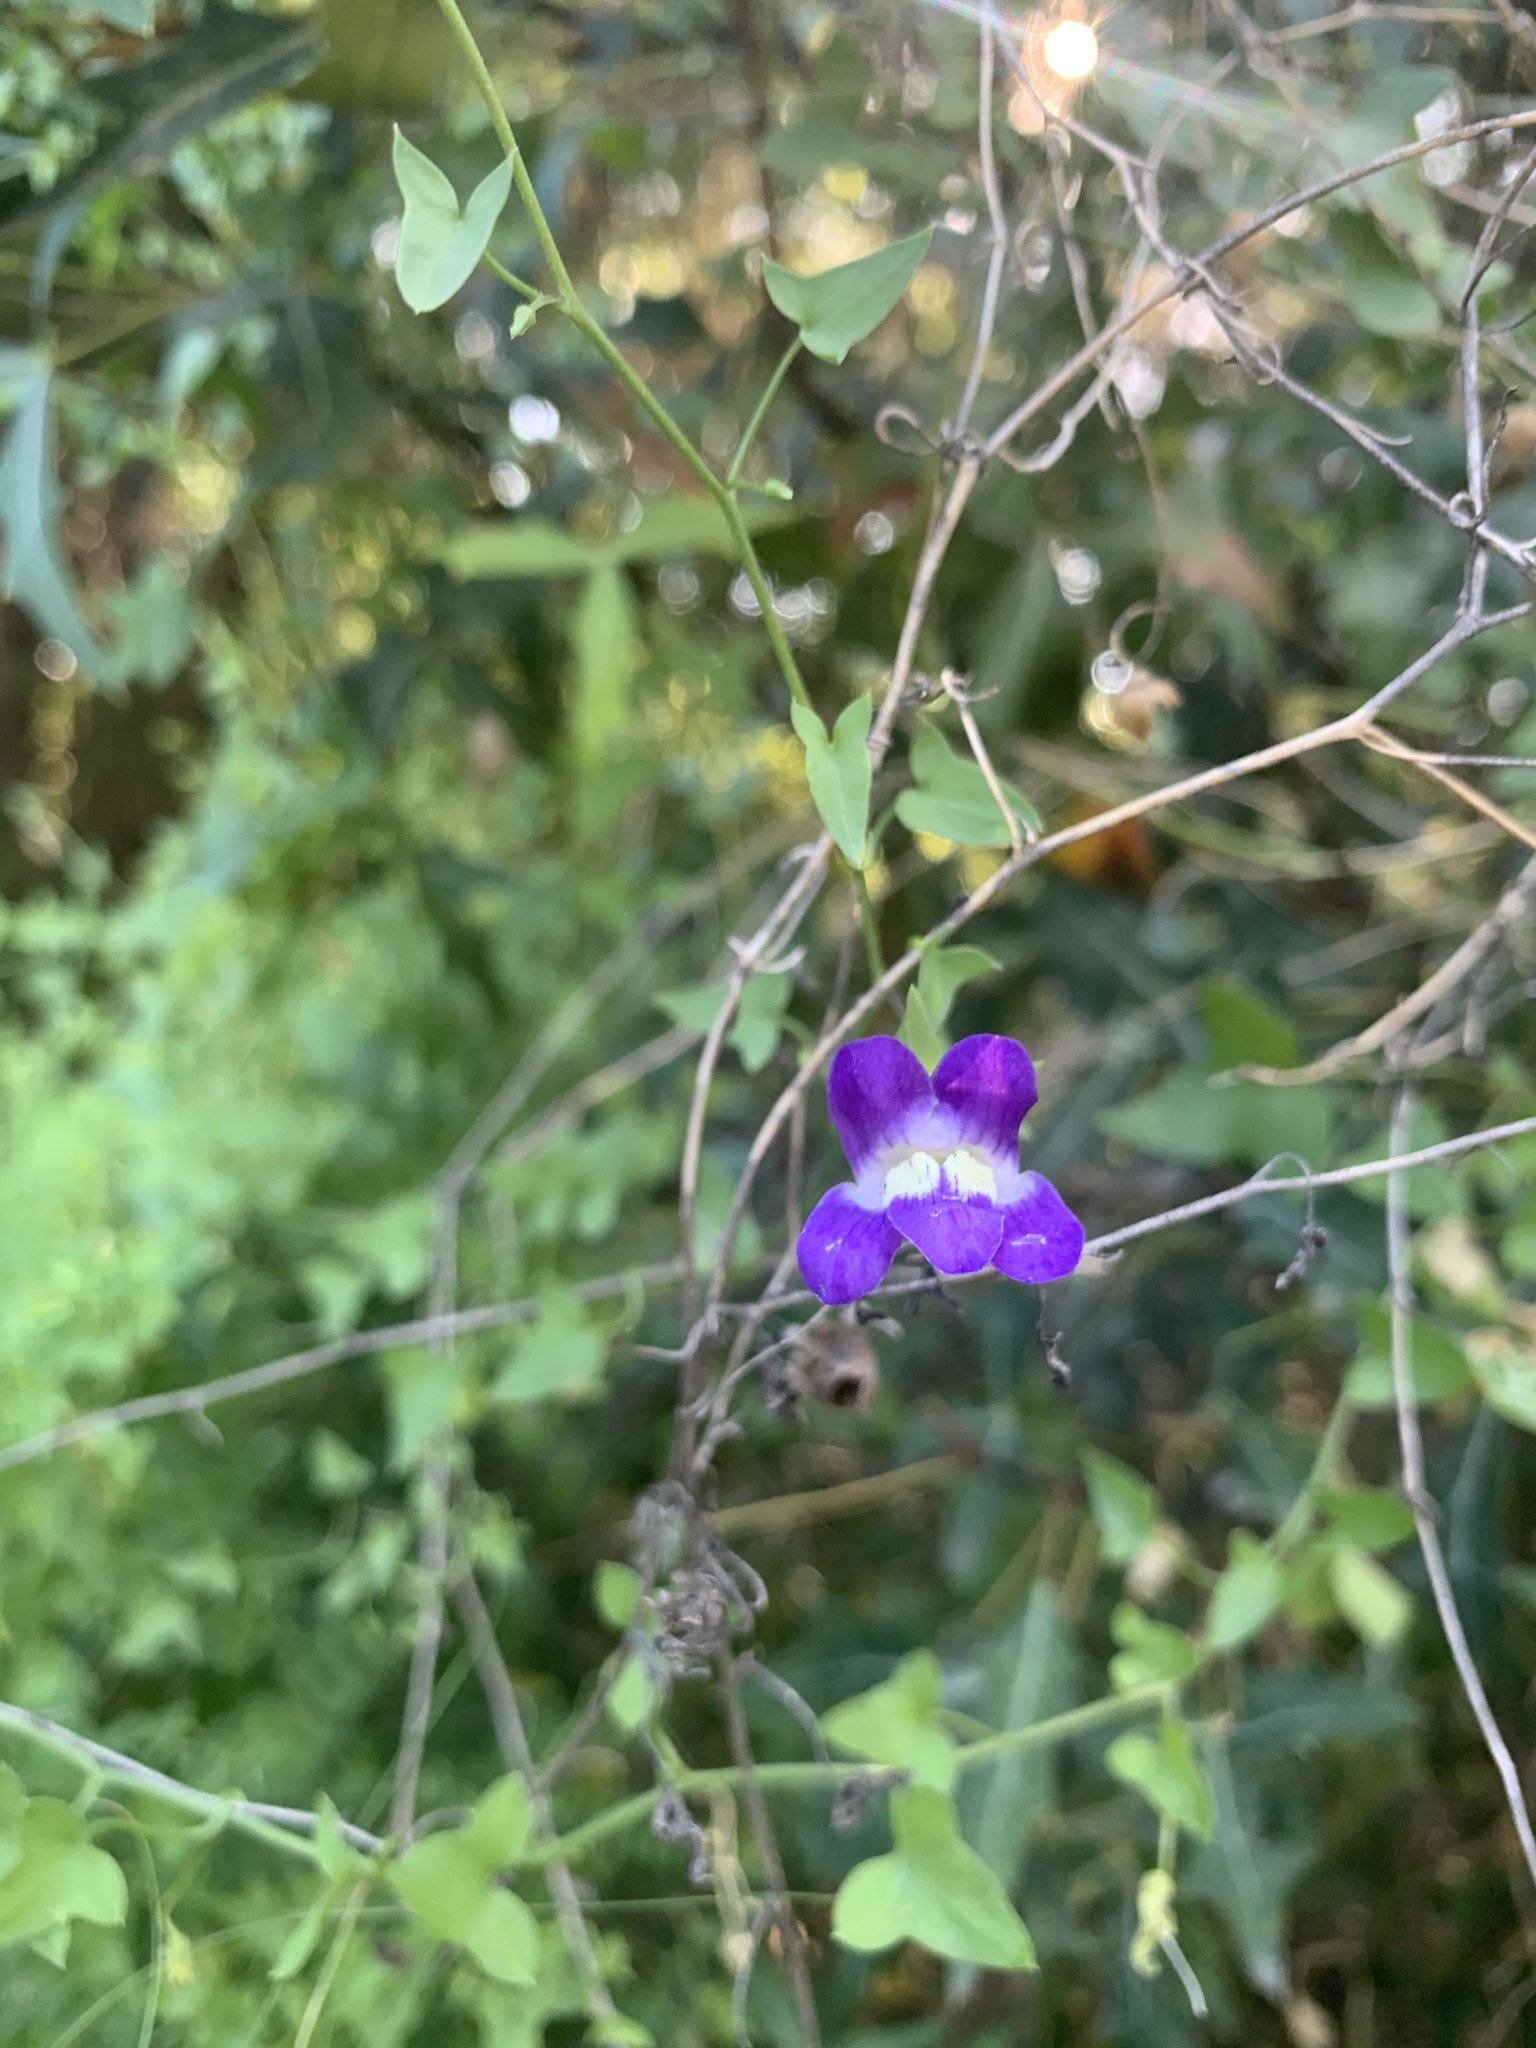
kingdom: Plantae
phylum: Tracheophyta
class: Magnoliopsida
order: Lamiales
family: Plantaginaceae
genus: Maurandella
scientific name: Maurandella antirrhiniflora
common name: Violet twining-snapdragon
